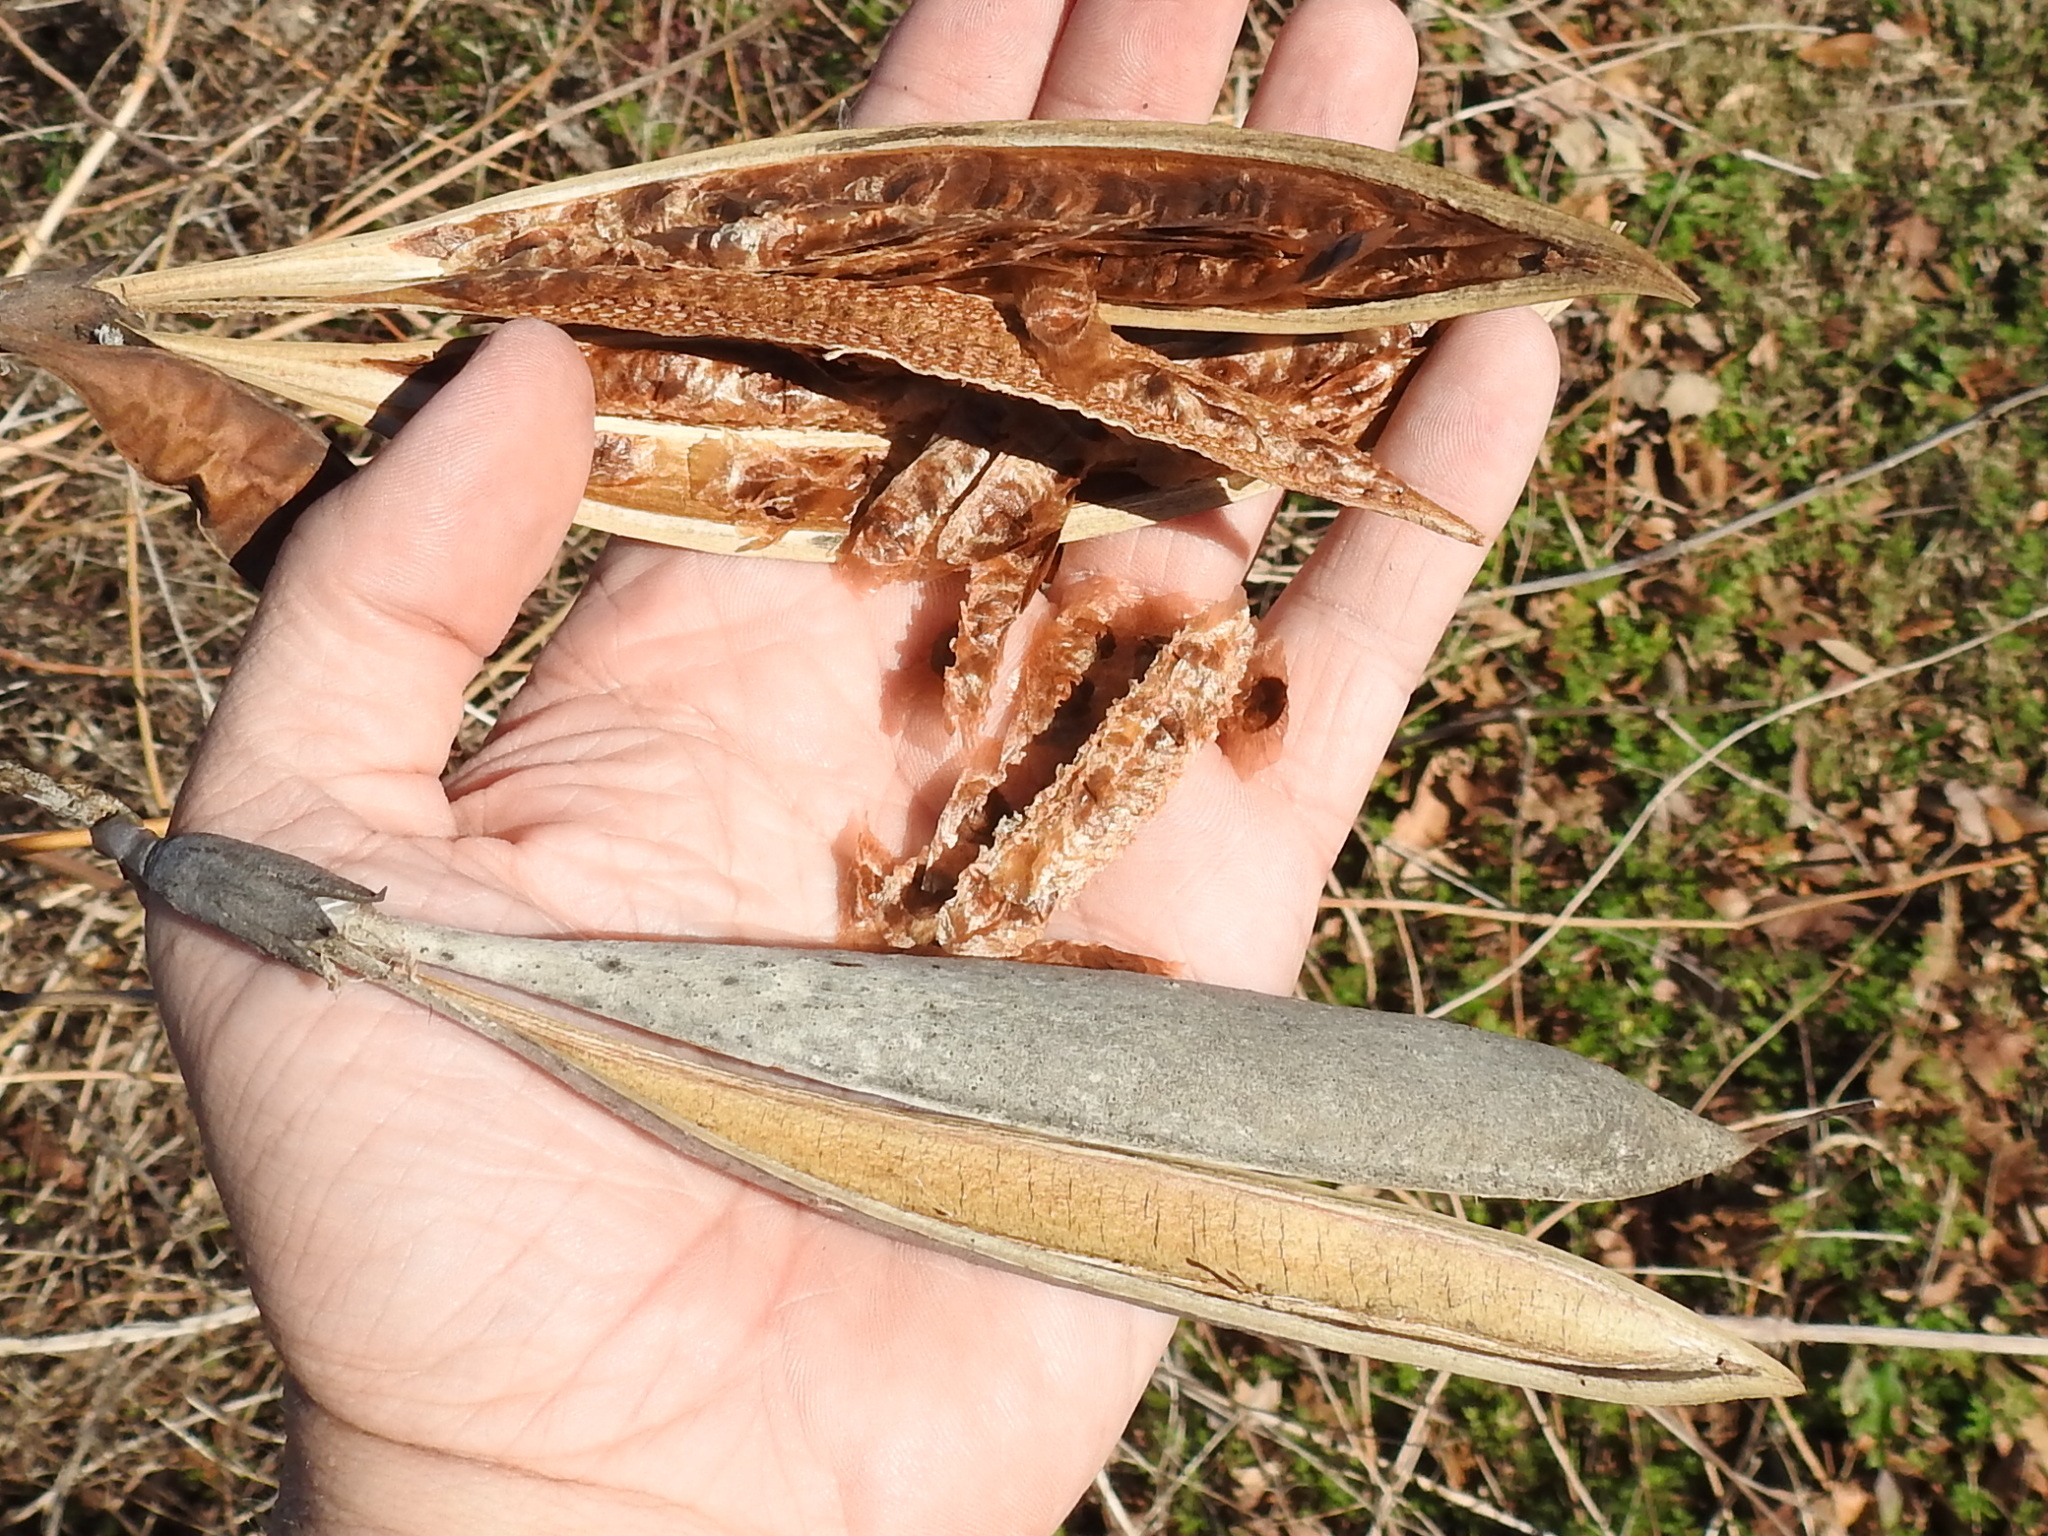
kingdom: Plantae
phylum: Tracheophyta
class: Magnoliopsida
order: Lamiales
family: Bignoniaceae
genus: Campsis
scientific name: Campsis radicans
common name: Trumpet-creeper
